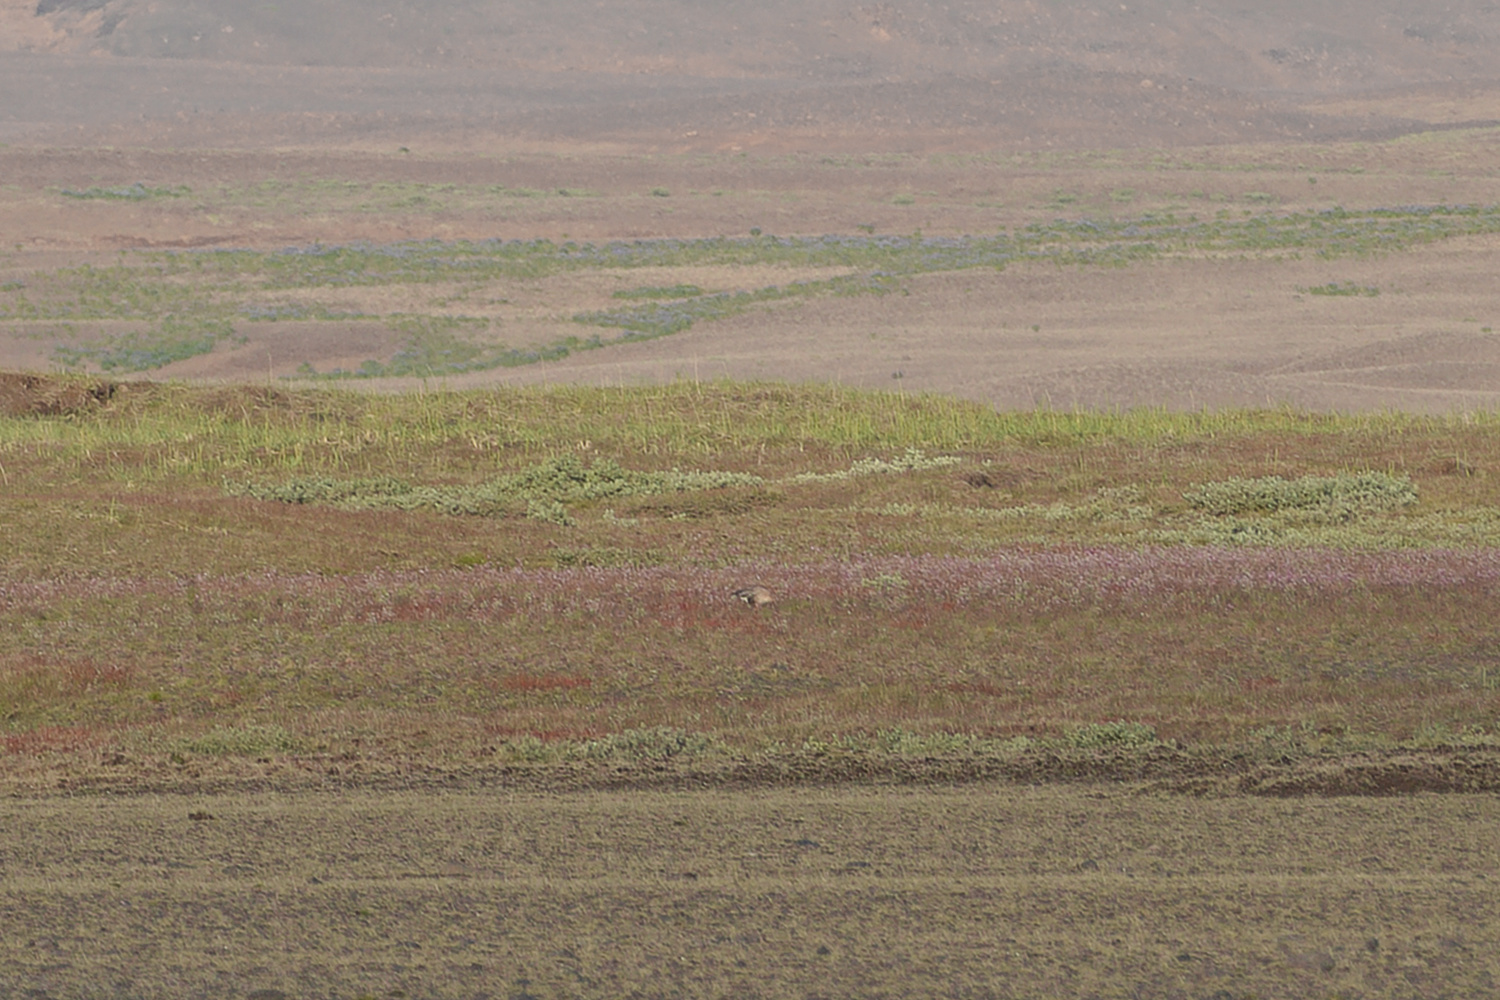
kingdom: Animalia
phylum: Chordata
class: Aves
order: Anseriformes
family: Anatidae
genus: Anser
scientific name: Anser brachyrhynchus
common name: Pink-footed goose
